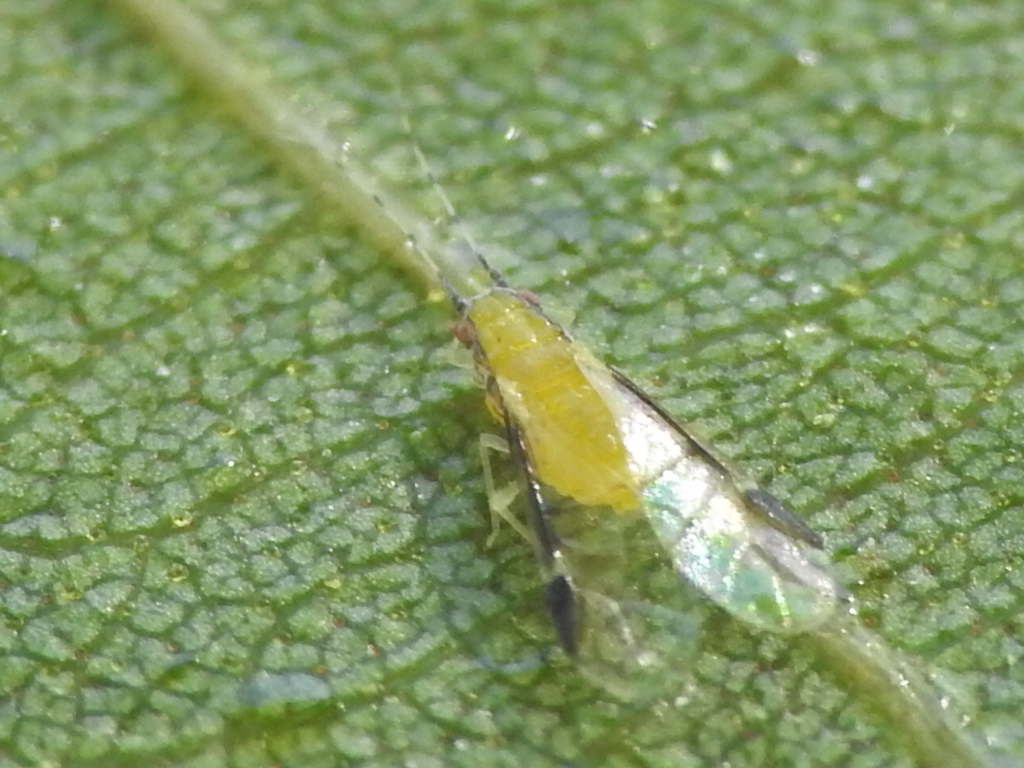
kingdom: Animalia
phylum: Arthropoda
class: Insecta
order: Hemiptera
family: Aphididae
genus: Monellia
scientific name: Monellia caryella
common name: Blackmargined aphid
